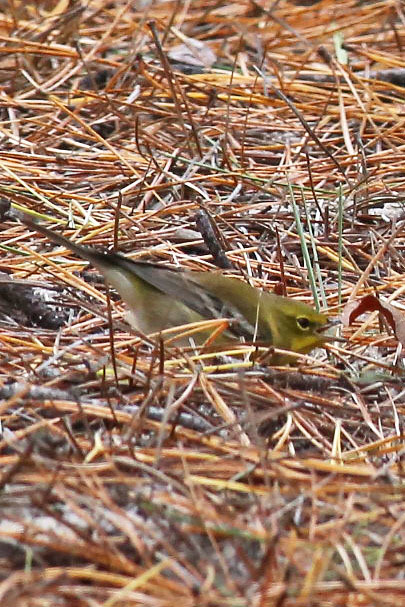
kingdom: Animalia
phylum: Chordata
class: Aves
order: Passeriformes
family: Parulidae
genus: Setophaga
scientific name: Setophaga pinus
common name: Pine warbler
